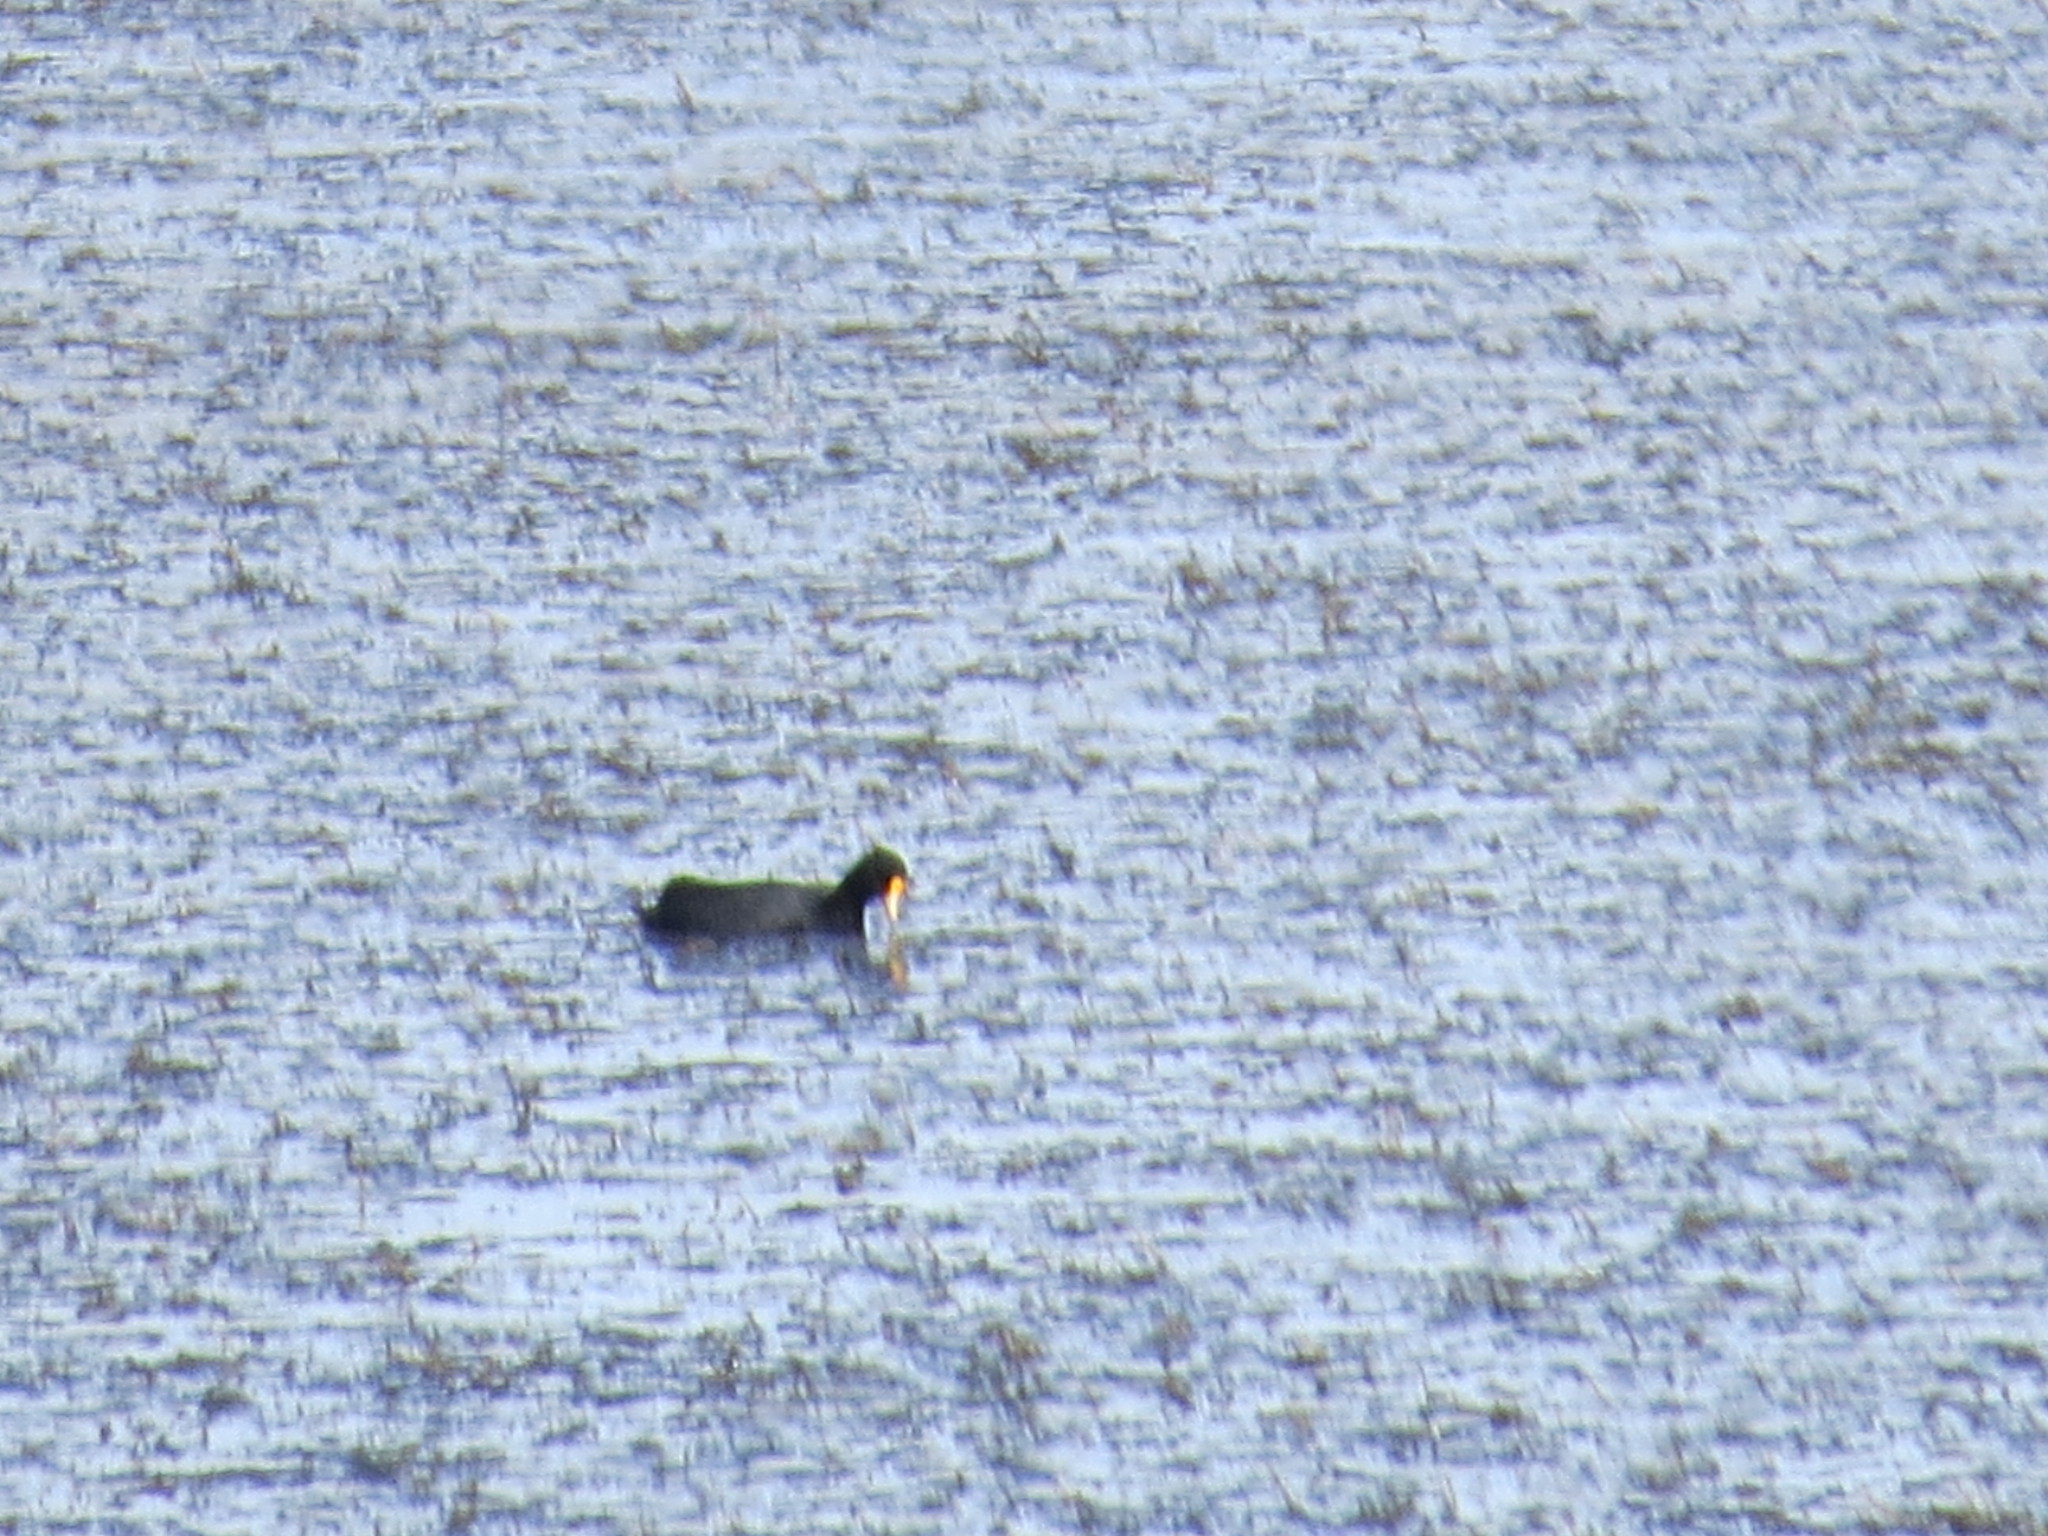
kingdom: Animalia
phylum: Chordata
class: Aves
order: Gruiformes
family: Rallidae
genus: Fulica
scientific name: Fulica leucoptera
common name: White-winged coot
